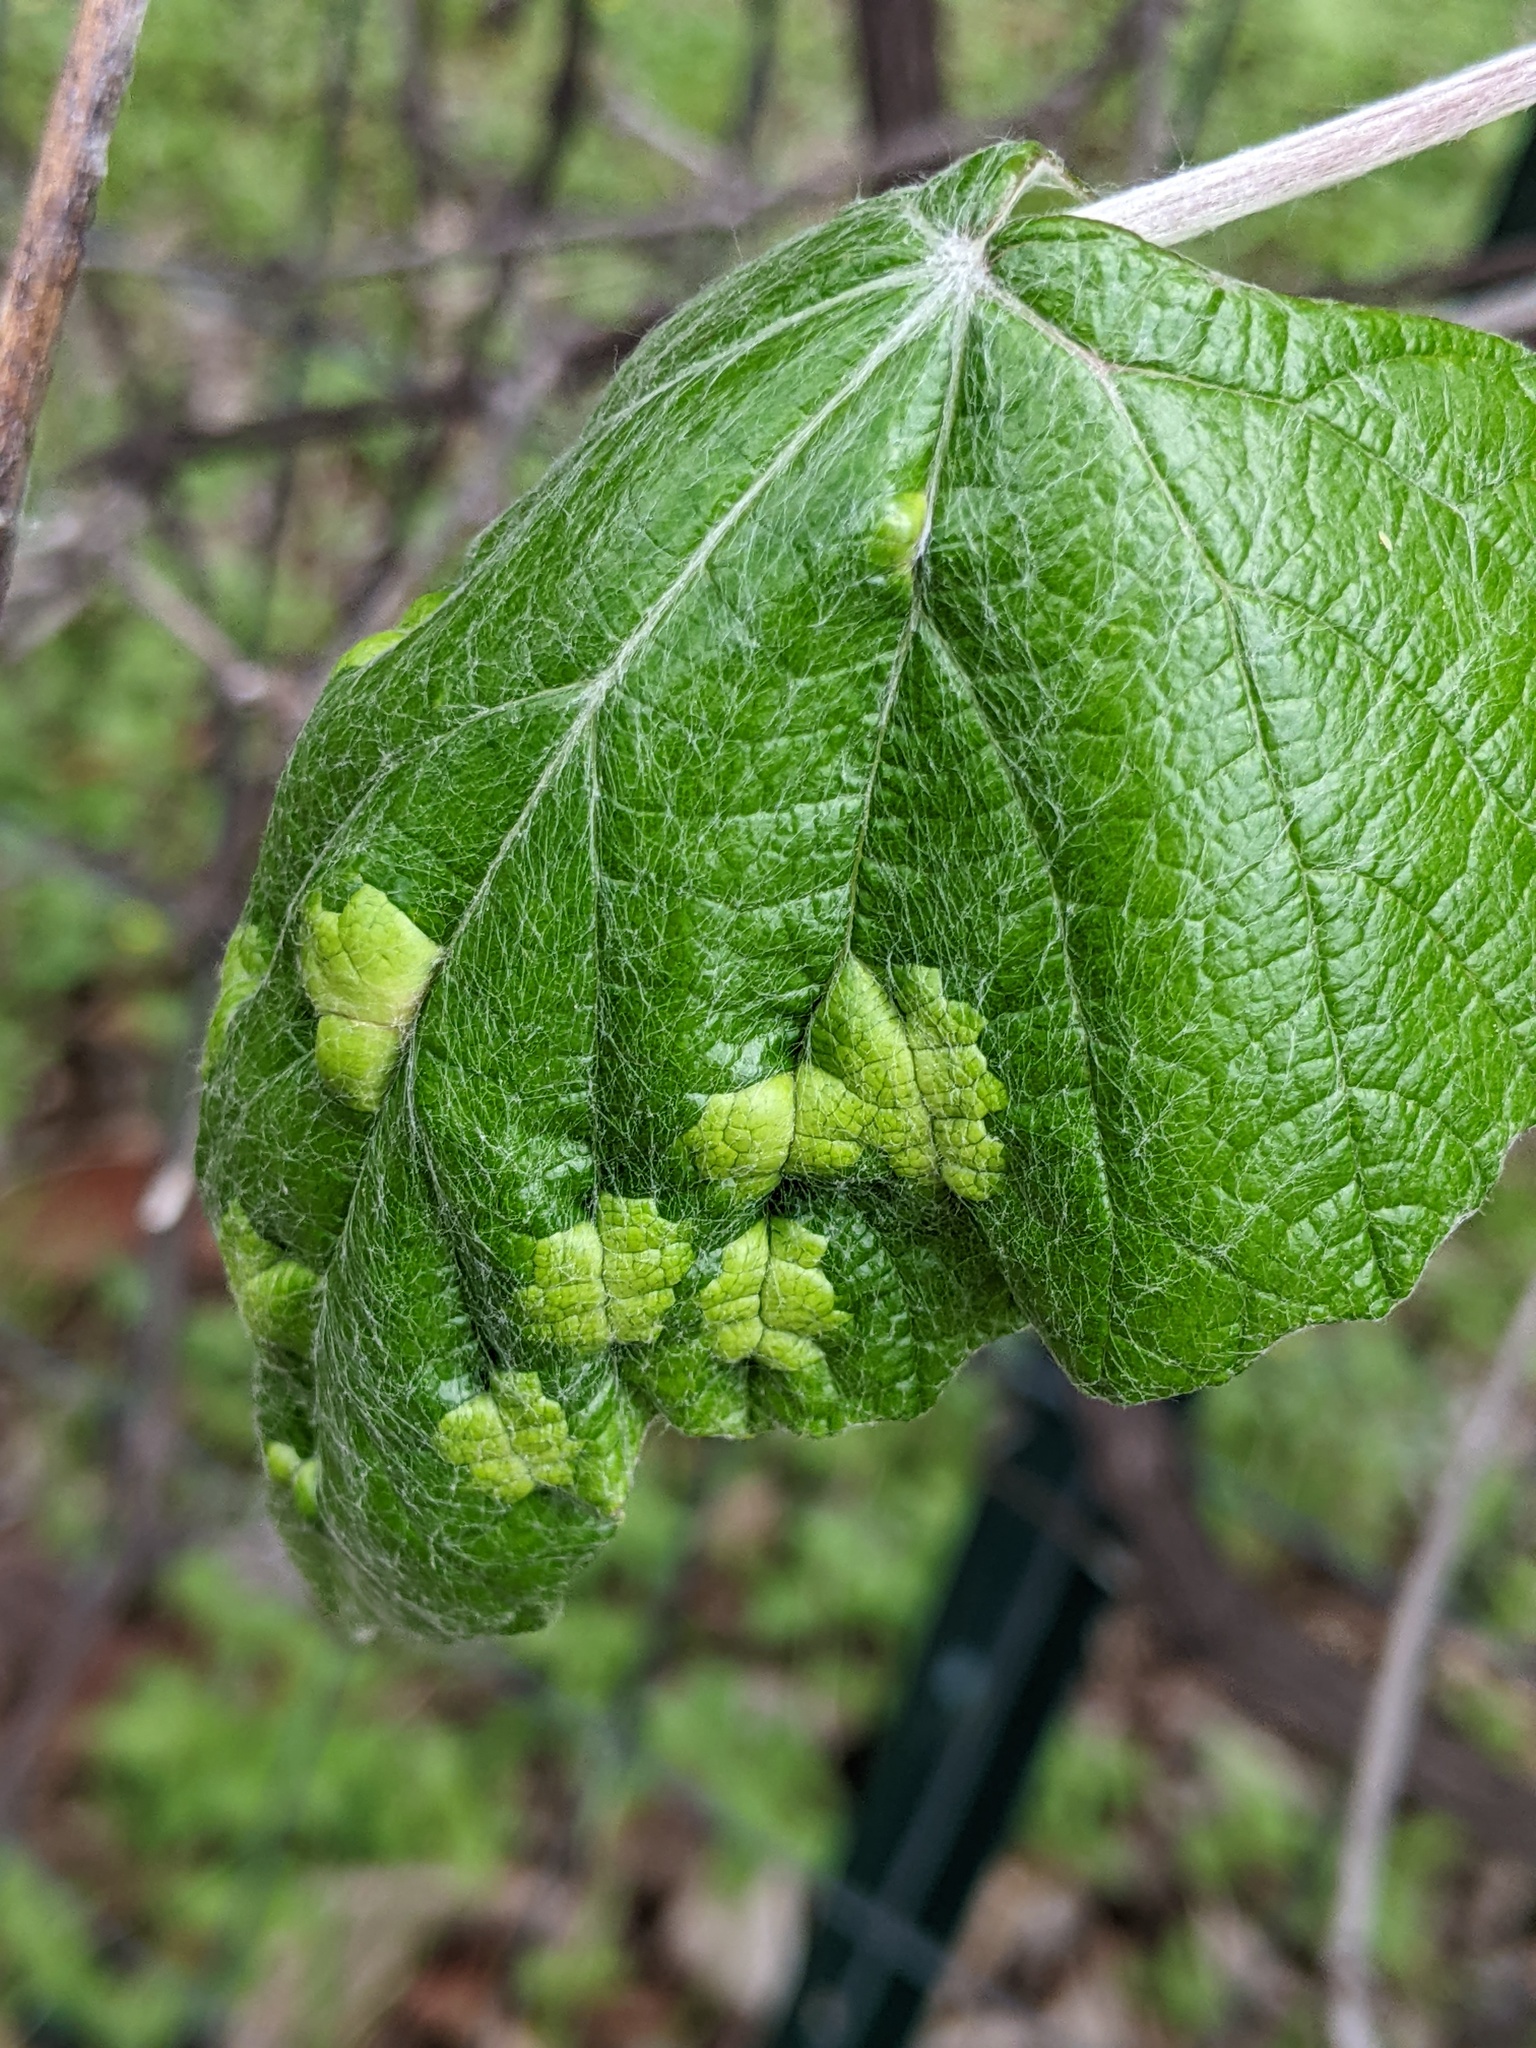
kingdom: Animalia
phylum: Arthropoda
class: Insecta
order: Lepidoptera
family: Heliozelidae
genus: Heliozela
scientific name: Heliozela aesella
